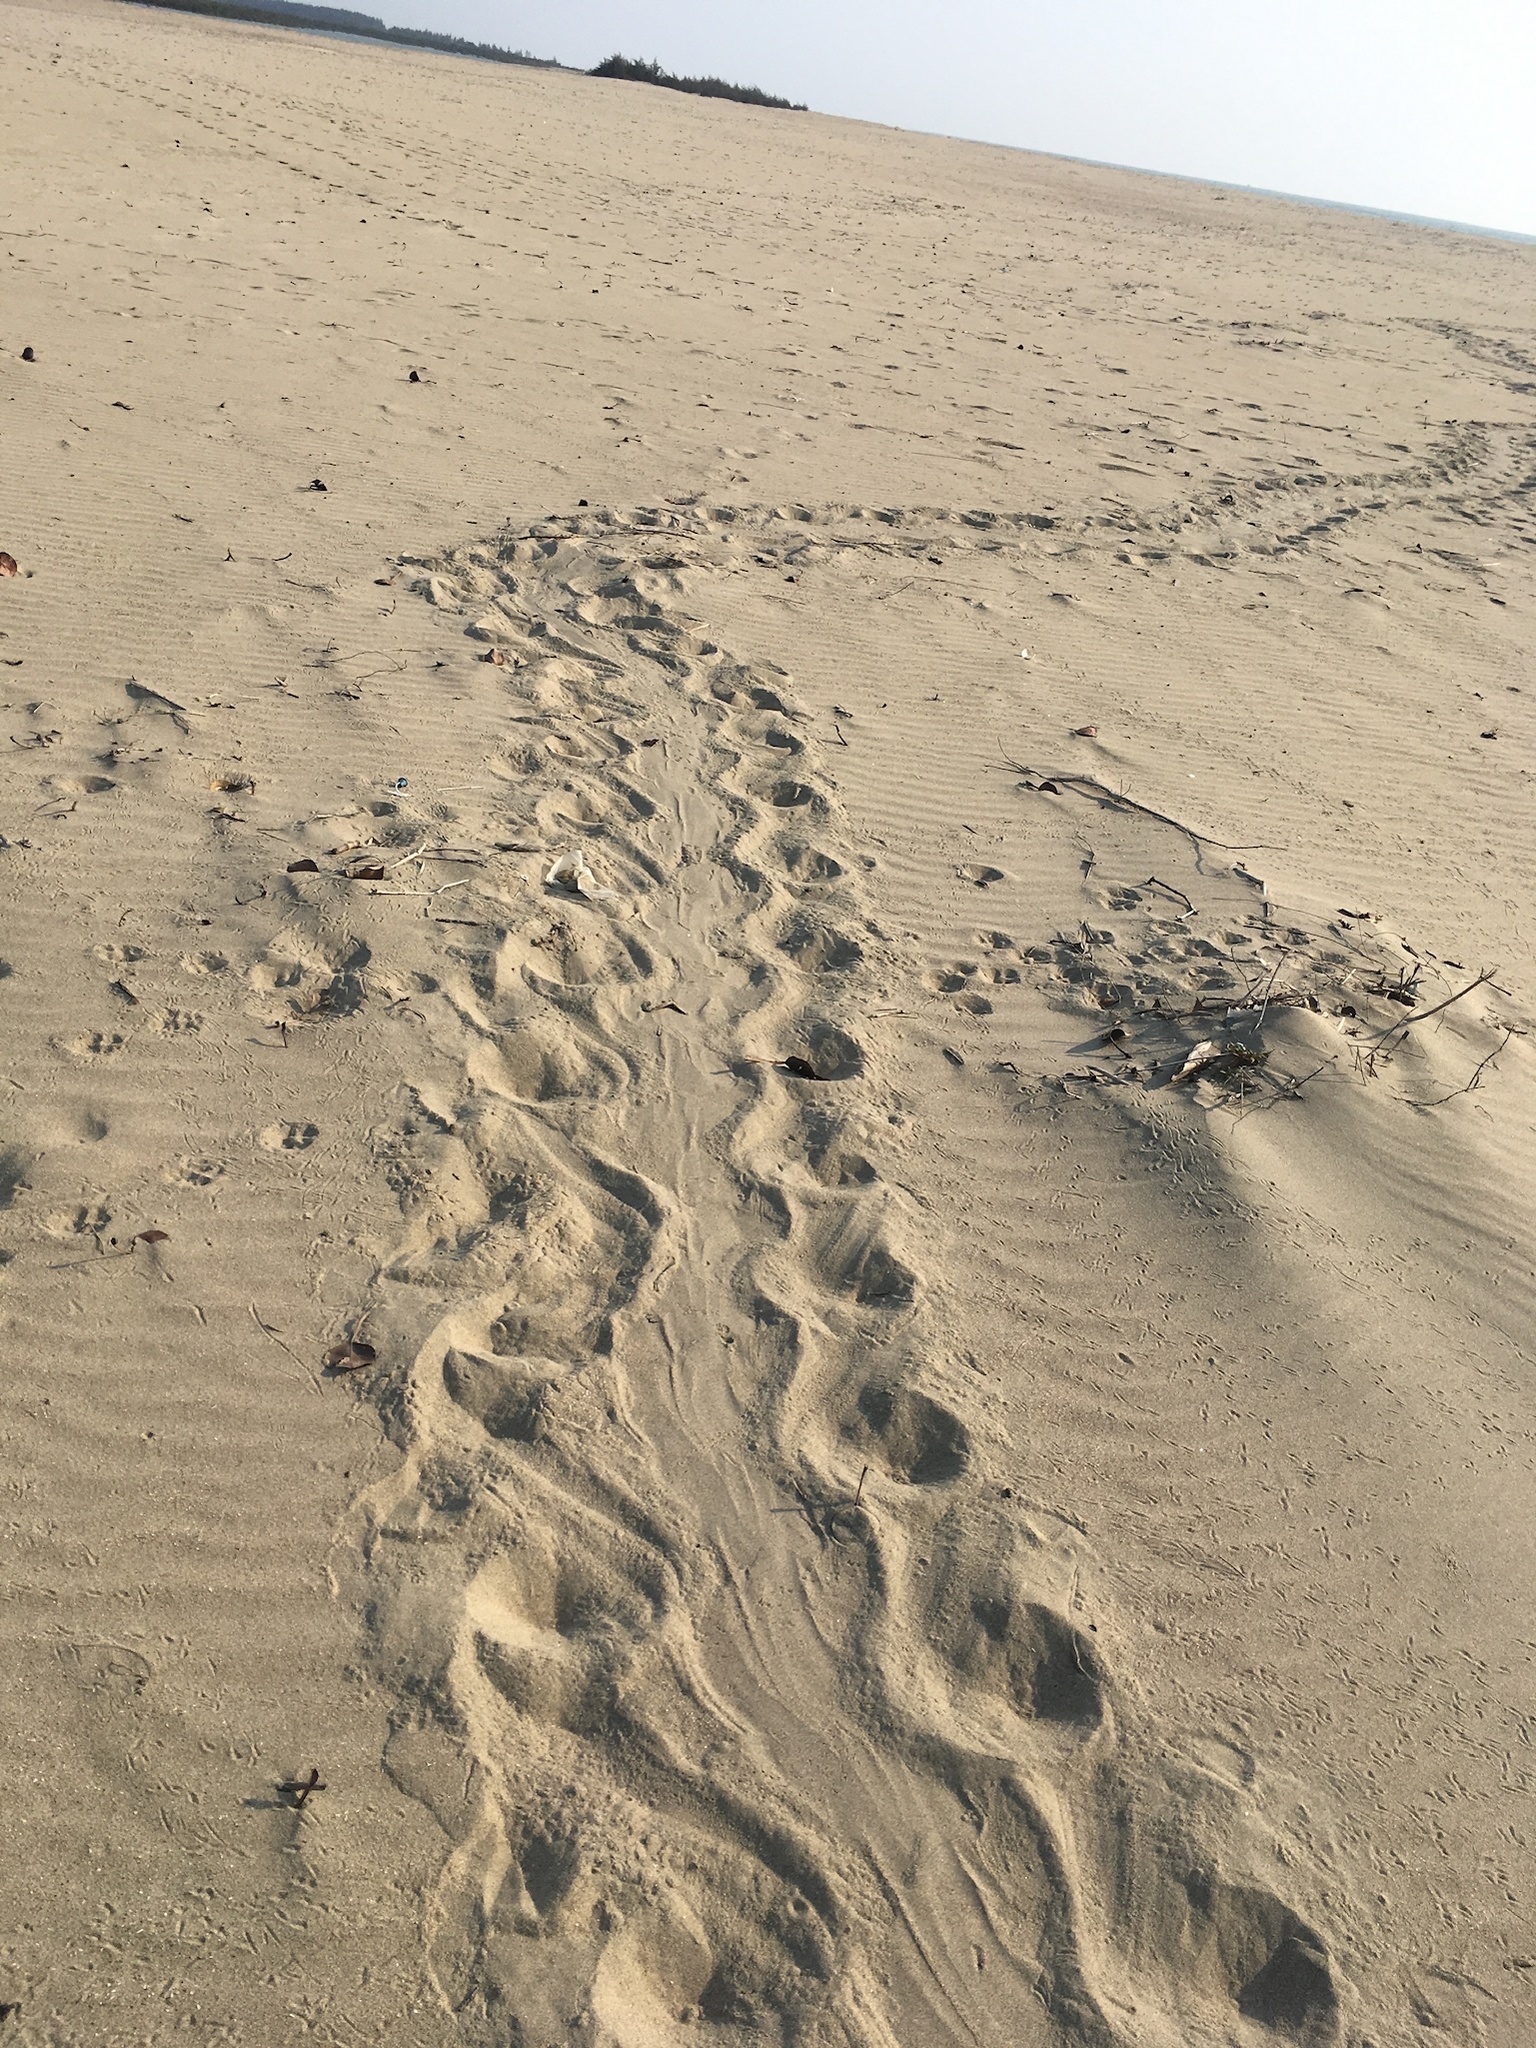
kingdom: Animalia
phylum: Chordata
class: Testudines
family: Cheloniidae
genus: Lepidochelys
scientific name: Lepidochelys olivacea
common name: Olive ridley
